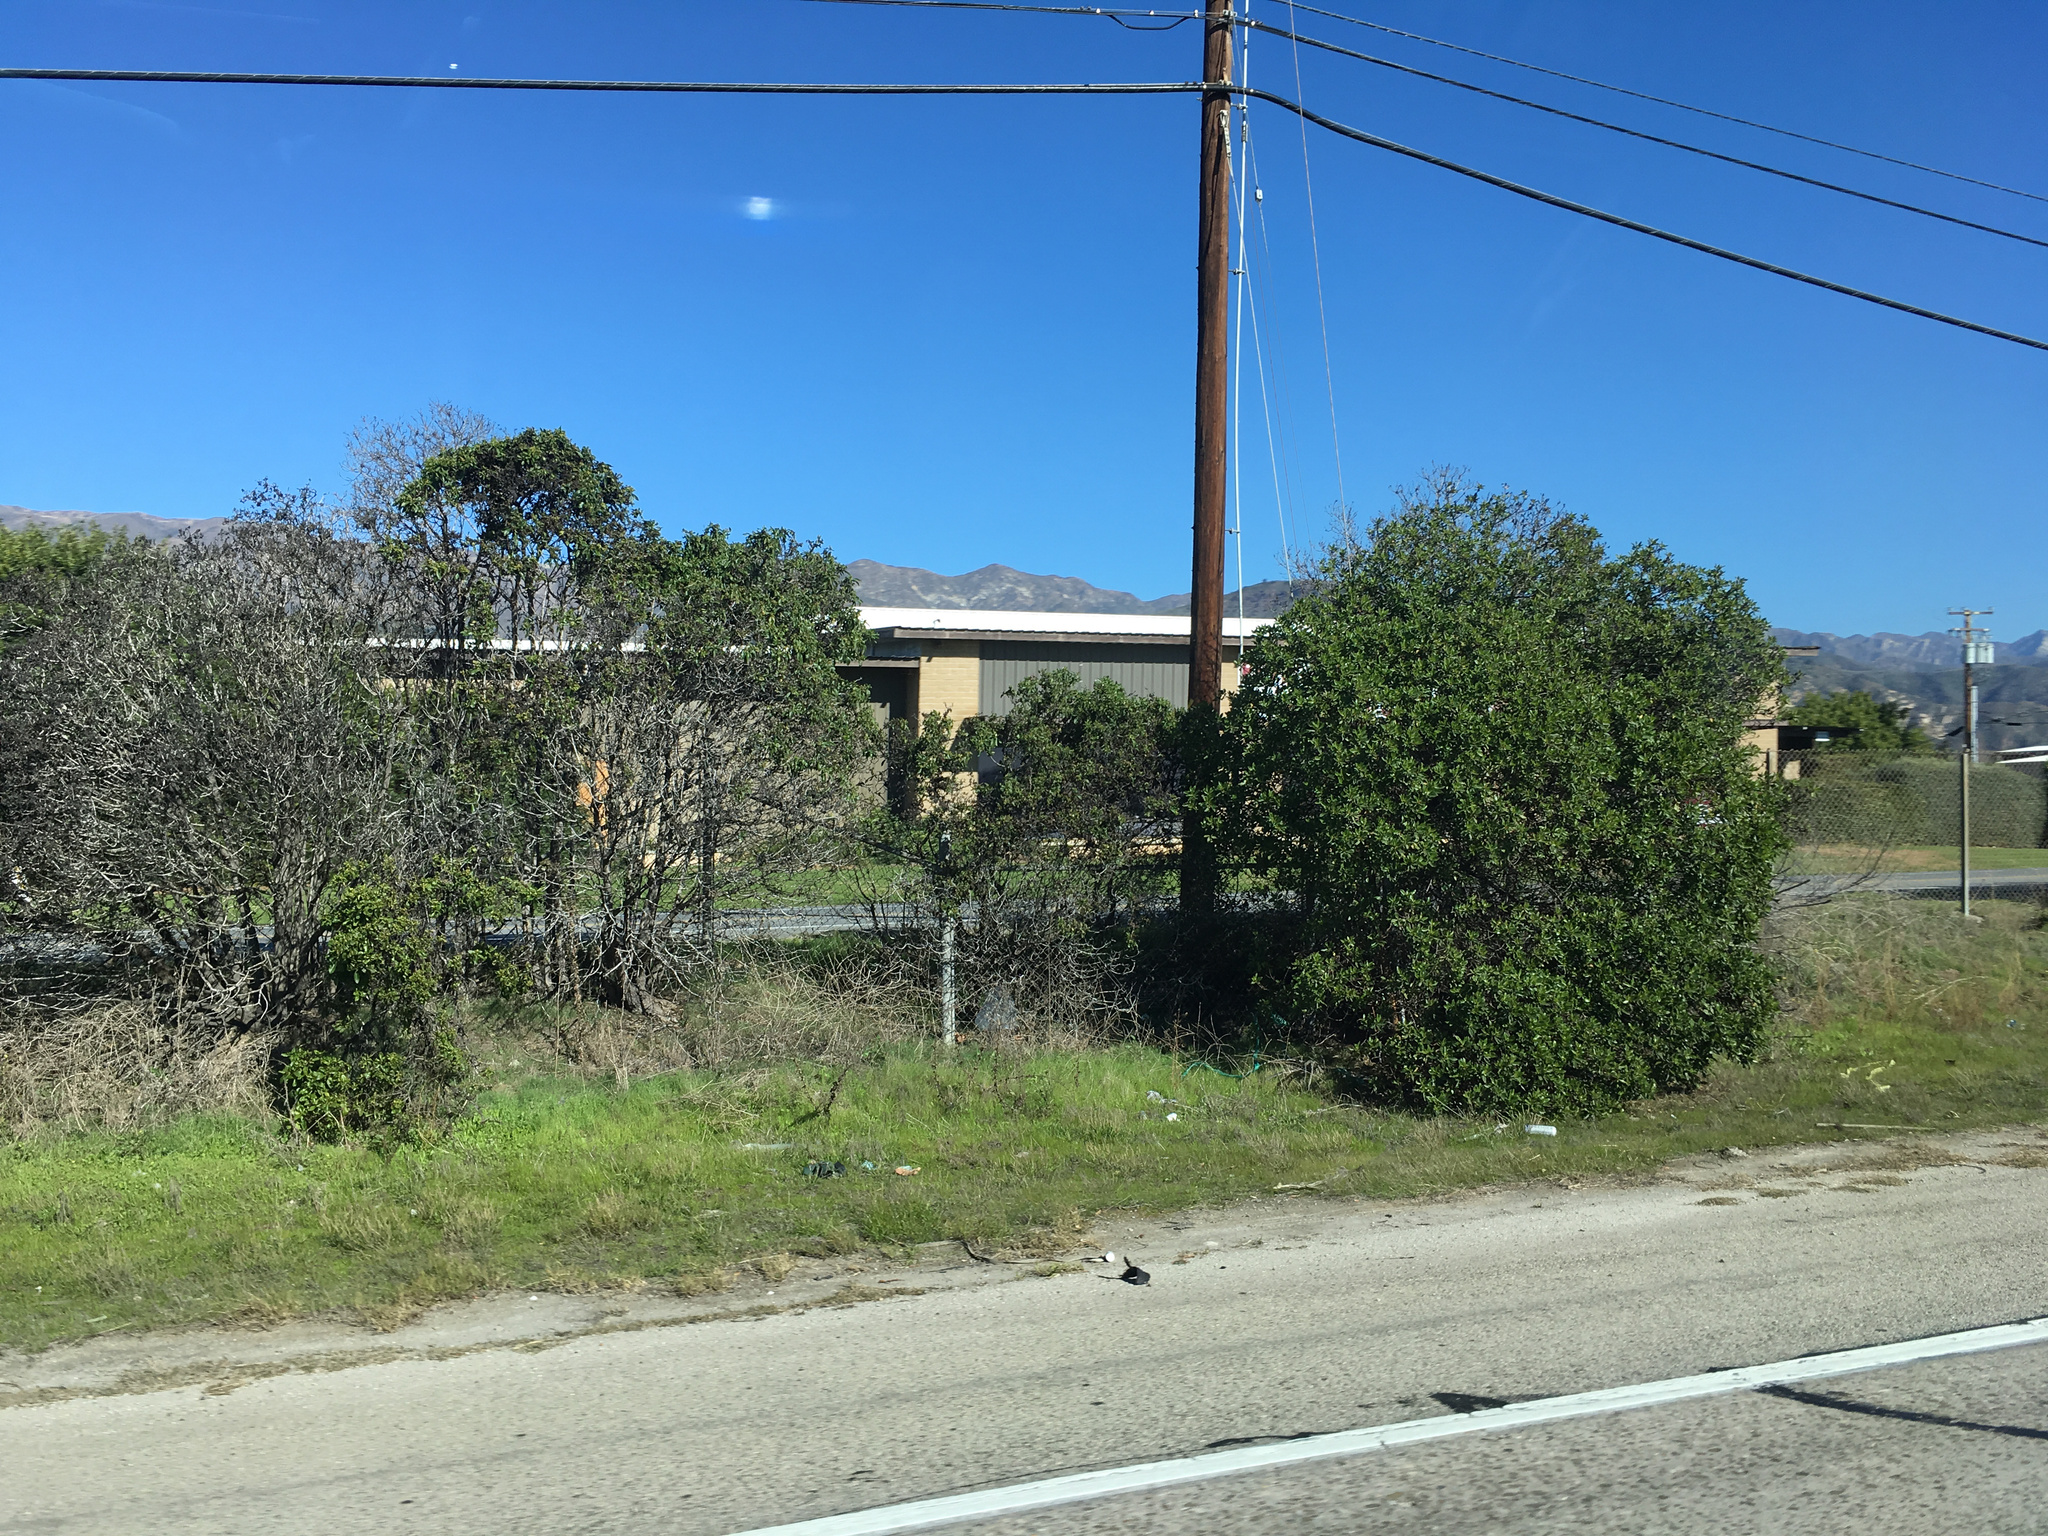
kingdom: Plantae
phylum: Tracheophyta
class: Magnoliopsida
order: Lamiales
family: Scrophulariaceae
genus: Myoporum
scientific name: Myoporum laetum
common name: Ngaio tree
